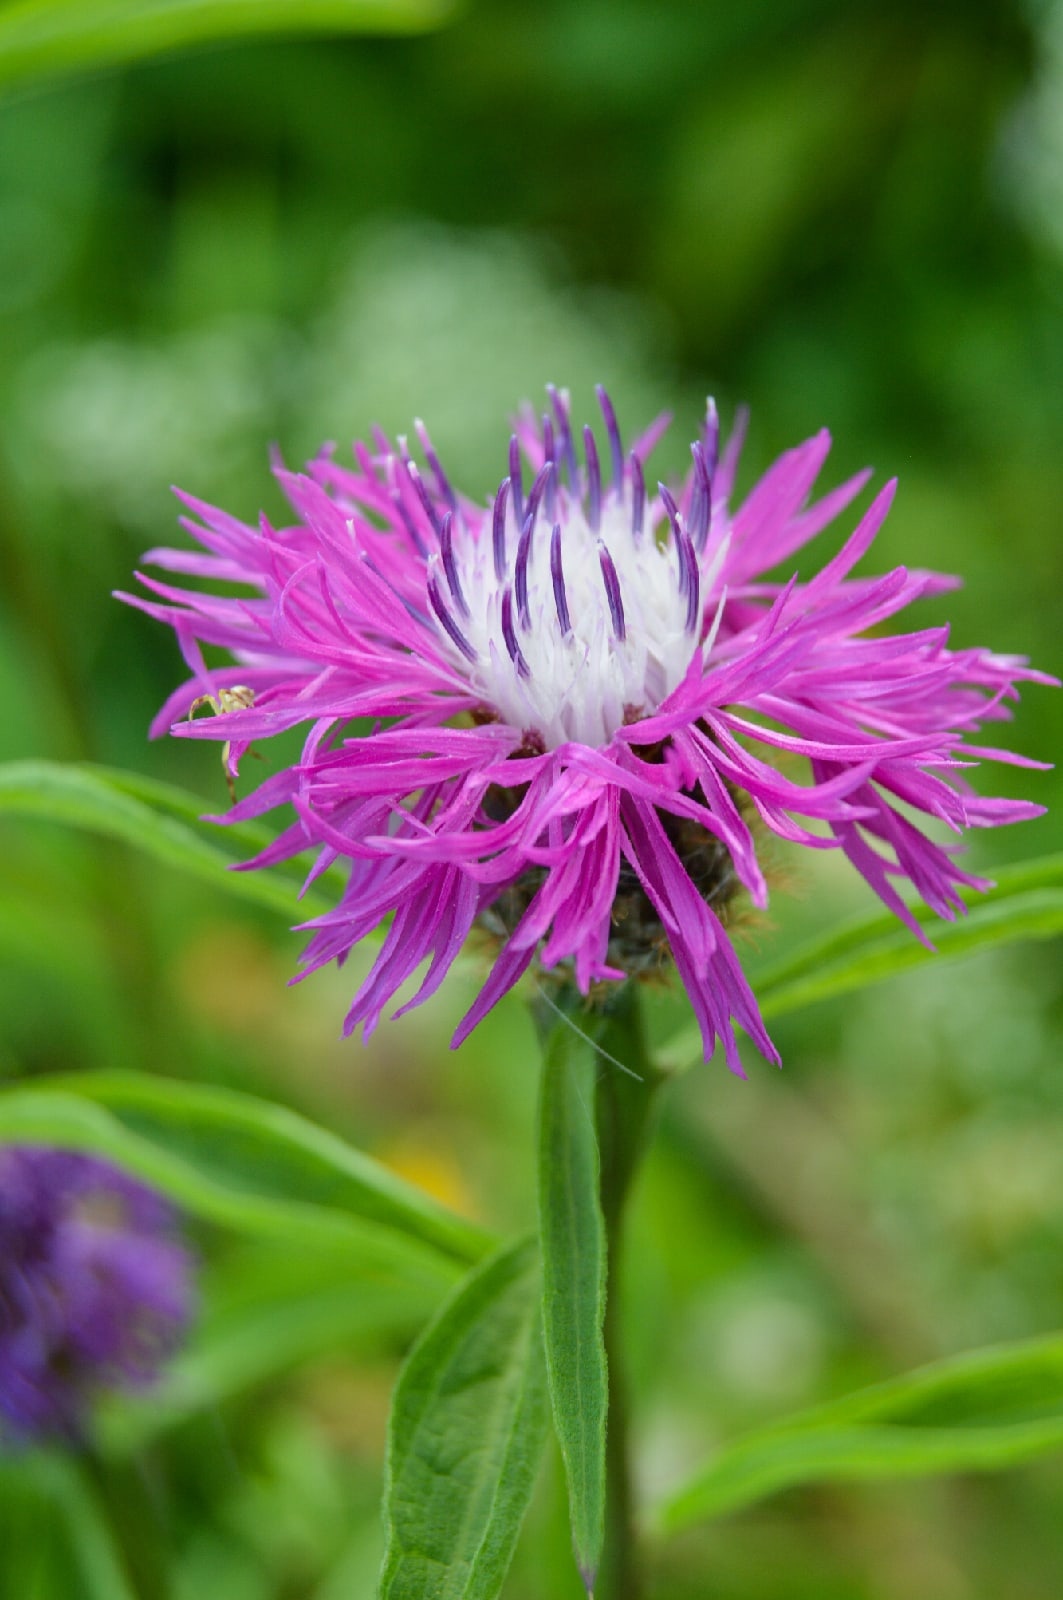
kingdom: Plantae
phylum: Tracheophyta
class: Magnoliopsida
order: Asterales
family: Asteraceae
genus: Centaurea
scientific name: Centaurea phrygia
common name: Wig knapweed
